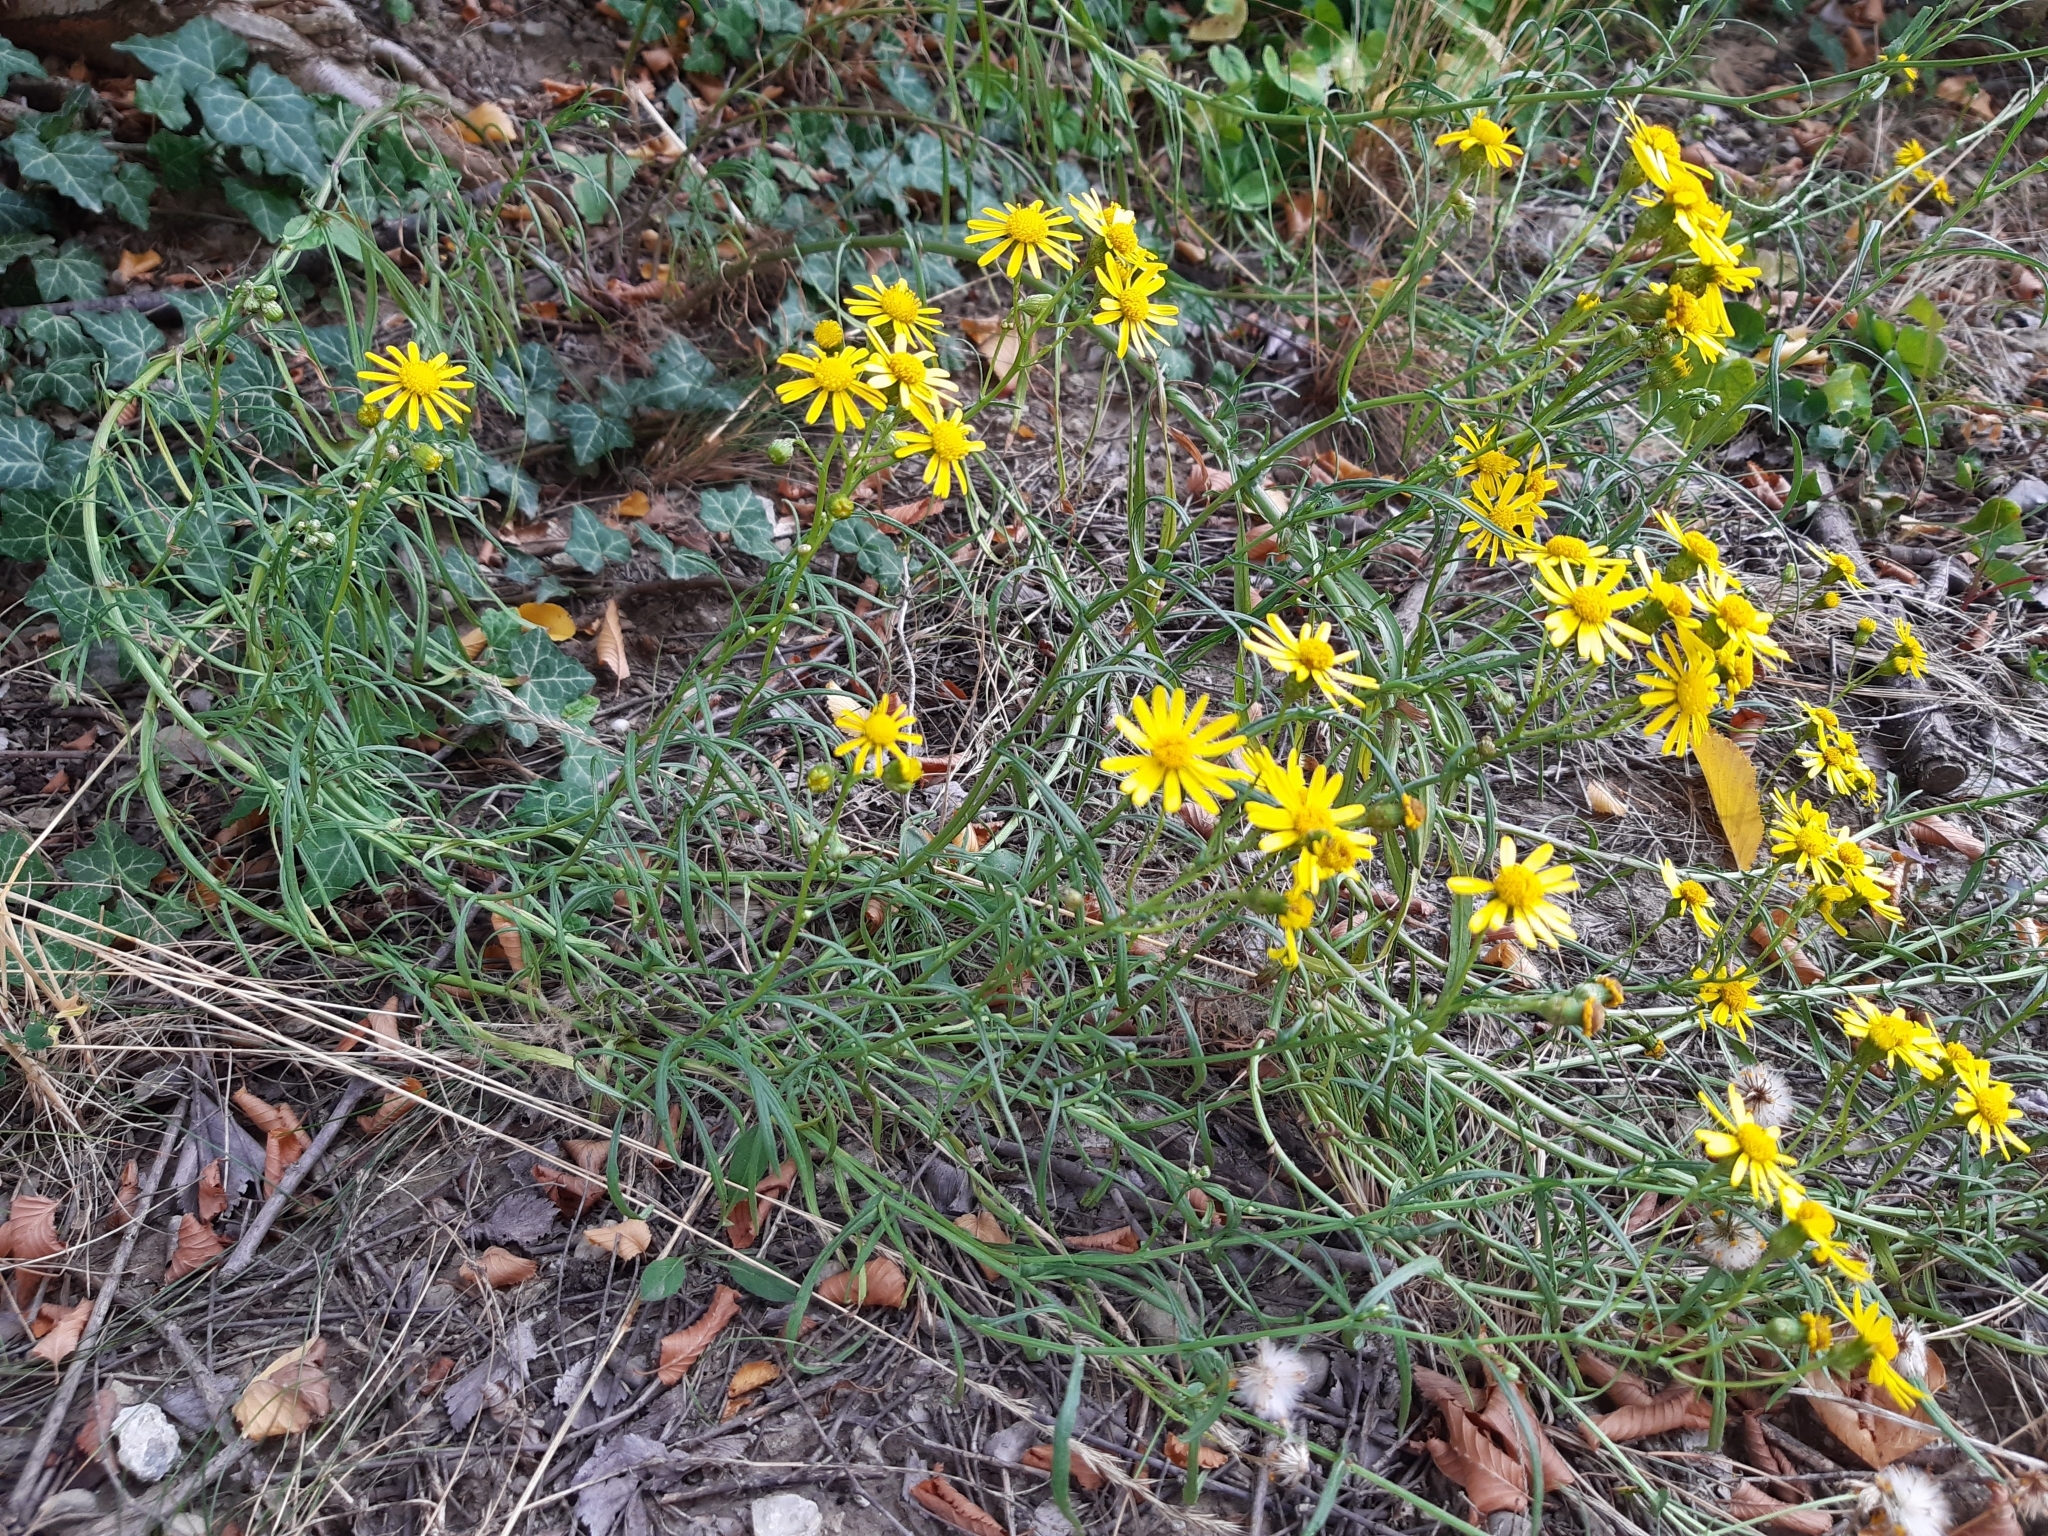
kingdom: Plantae
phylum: Tracheophyta
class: Magnoliopsida
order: Asterales
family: Asteraceae
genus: Senecio
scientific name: Senecio inaequidens
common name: Narrow-leaved ragwort
